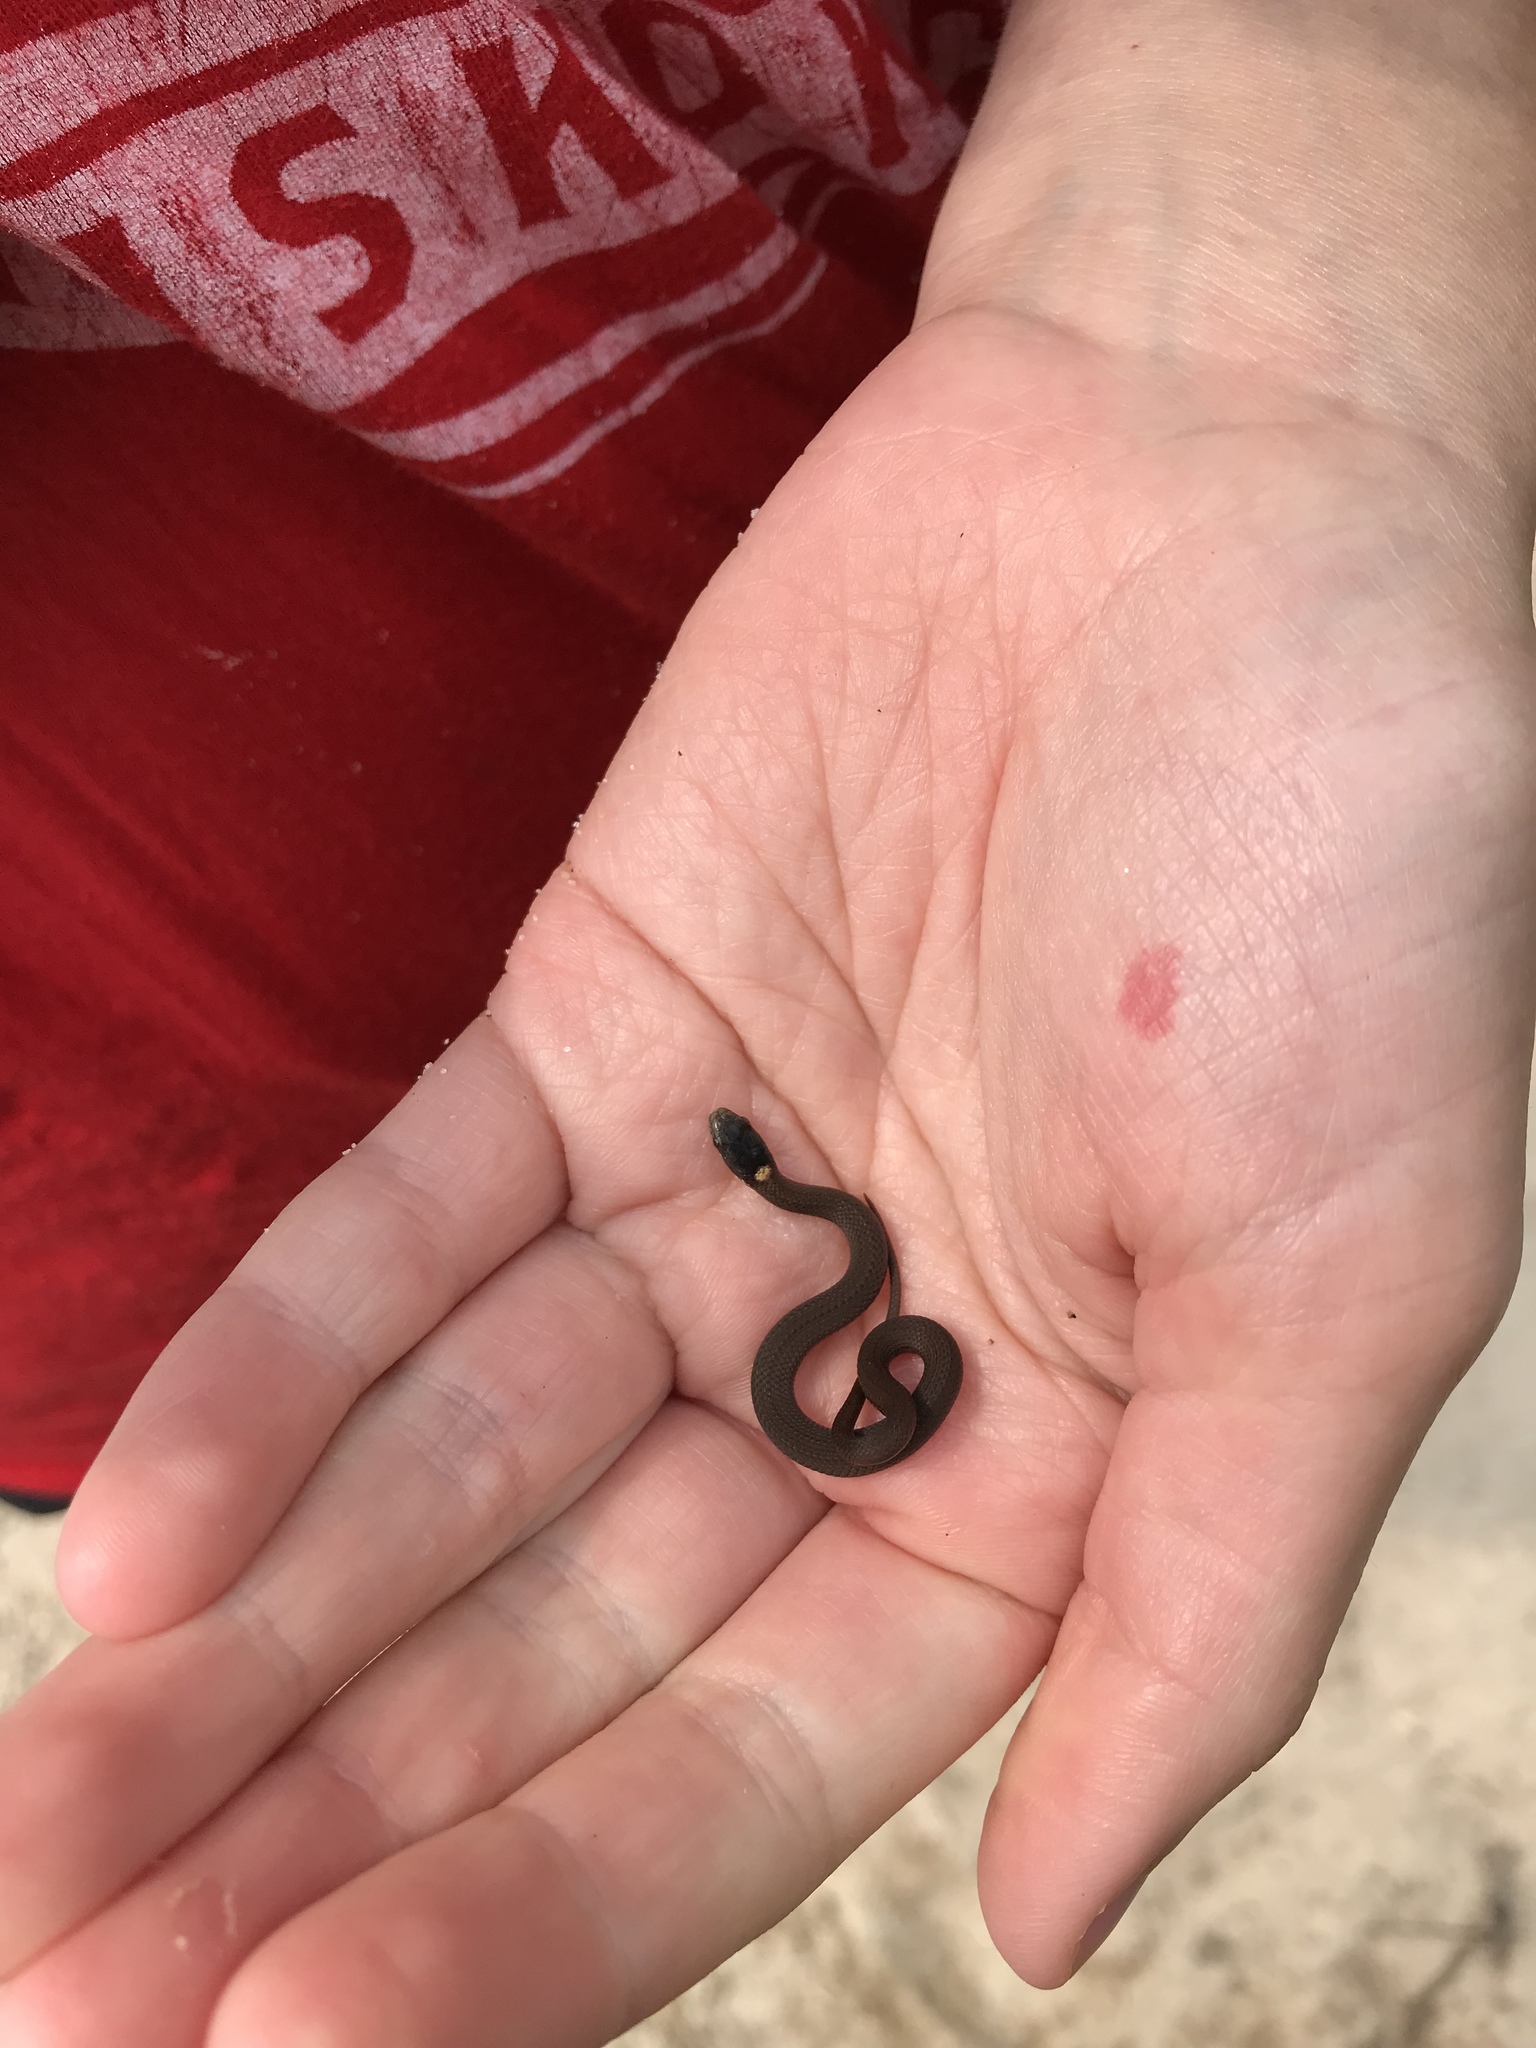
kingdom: Animalia
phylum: Chordata
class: Squamata
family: Colubridae
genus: Storeria
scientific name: Storeria occipitomaculata
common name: Redbelly snake
